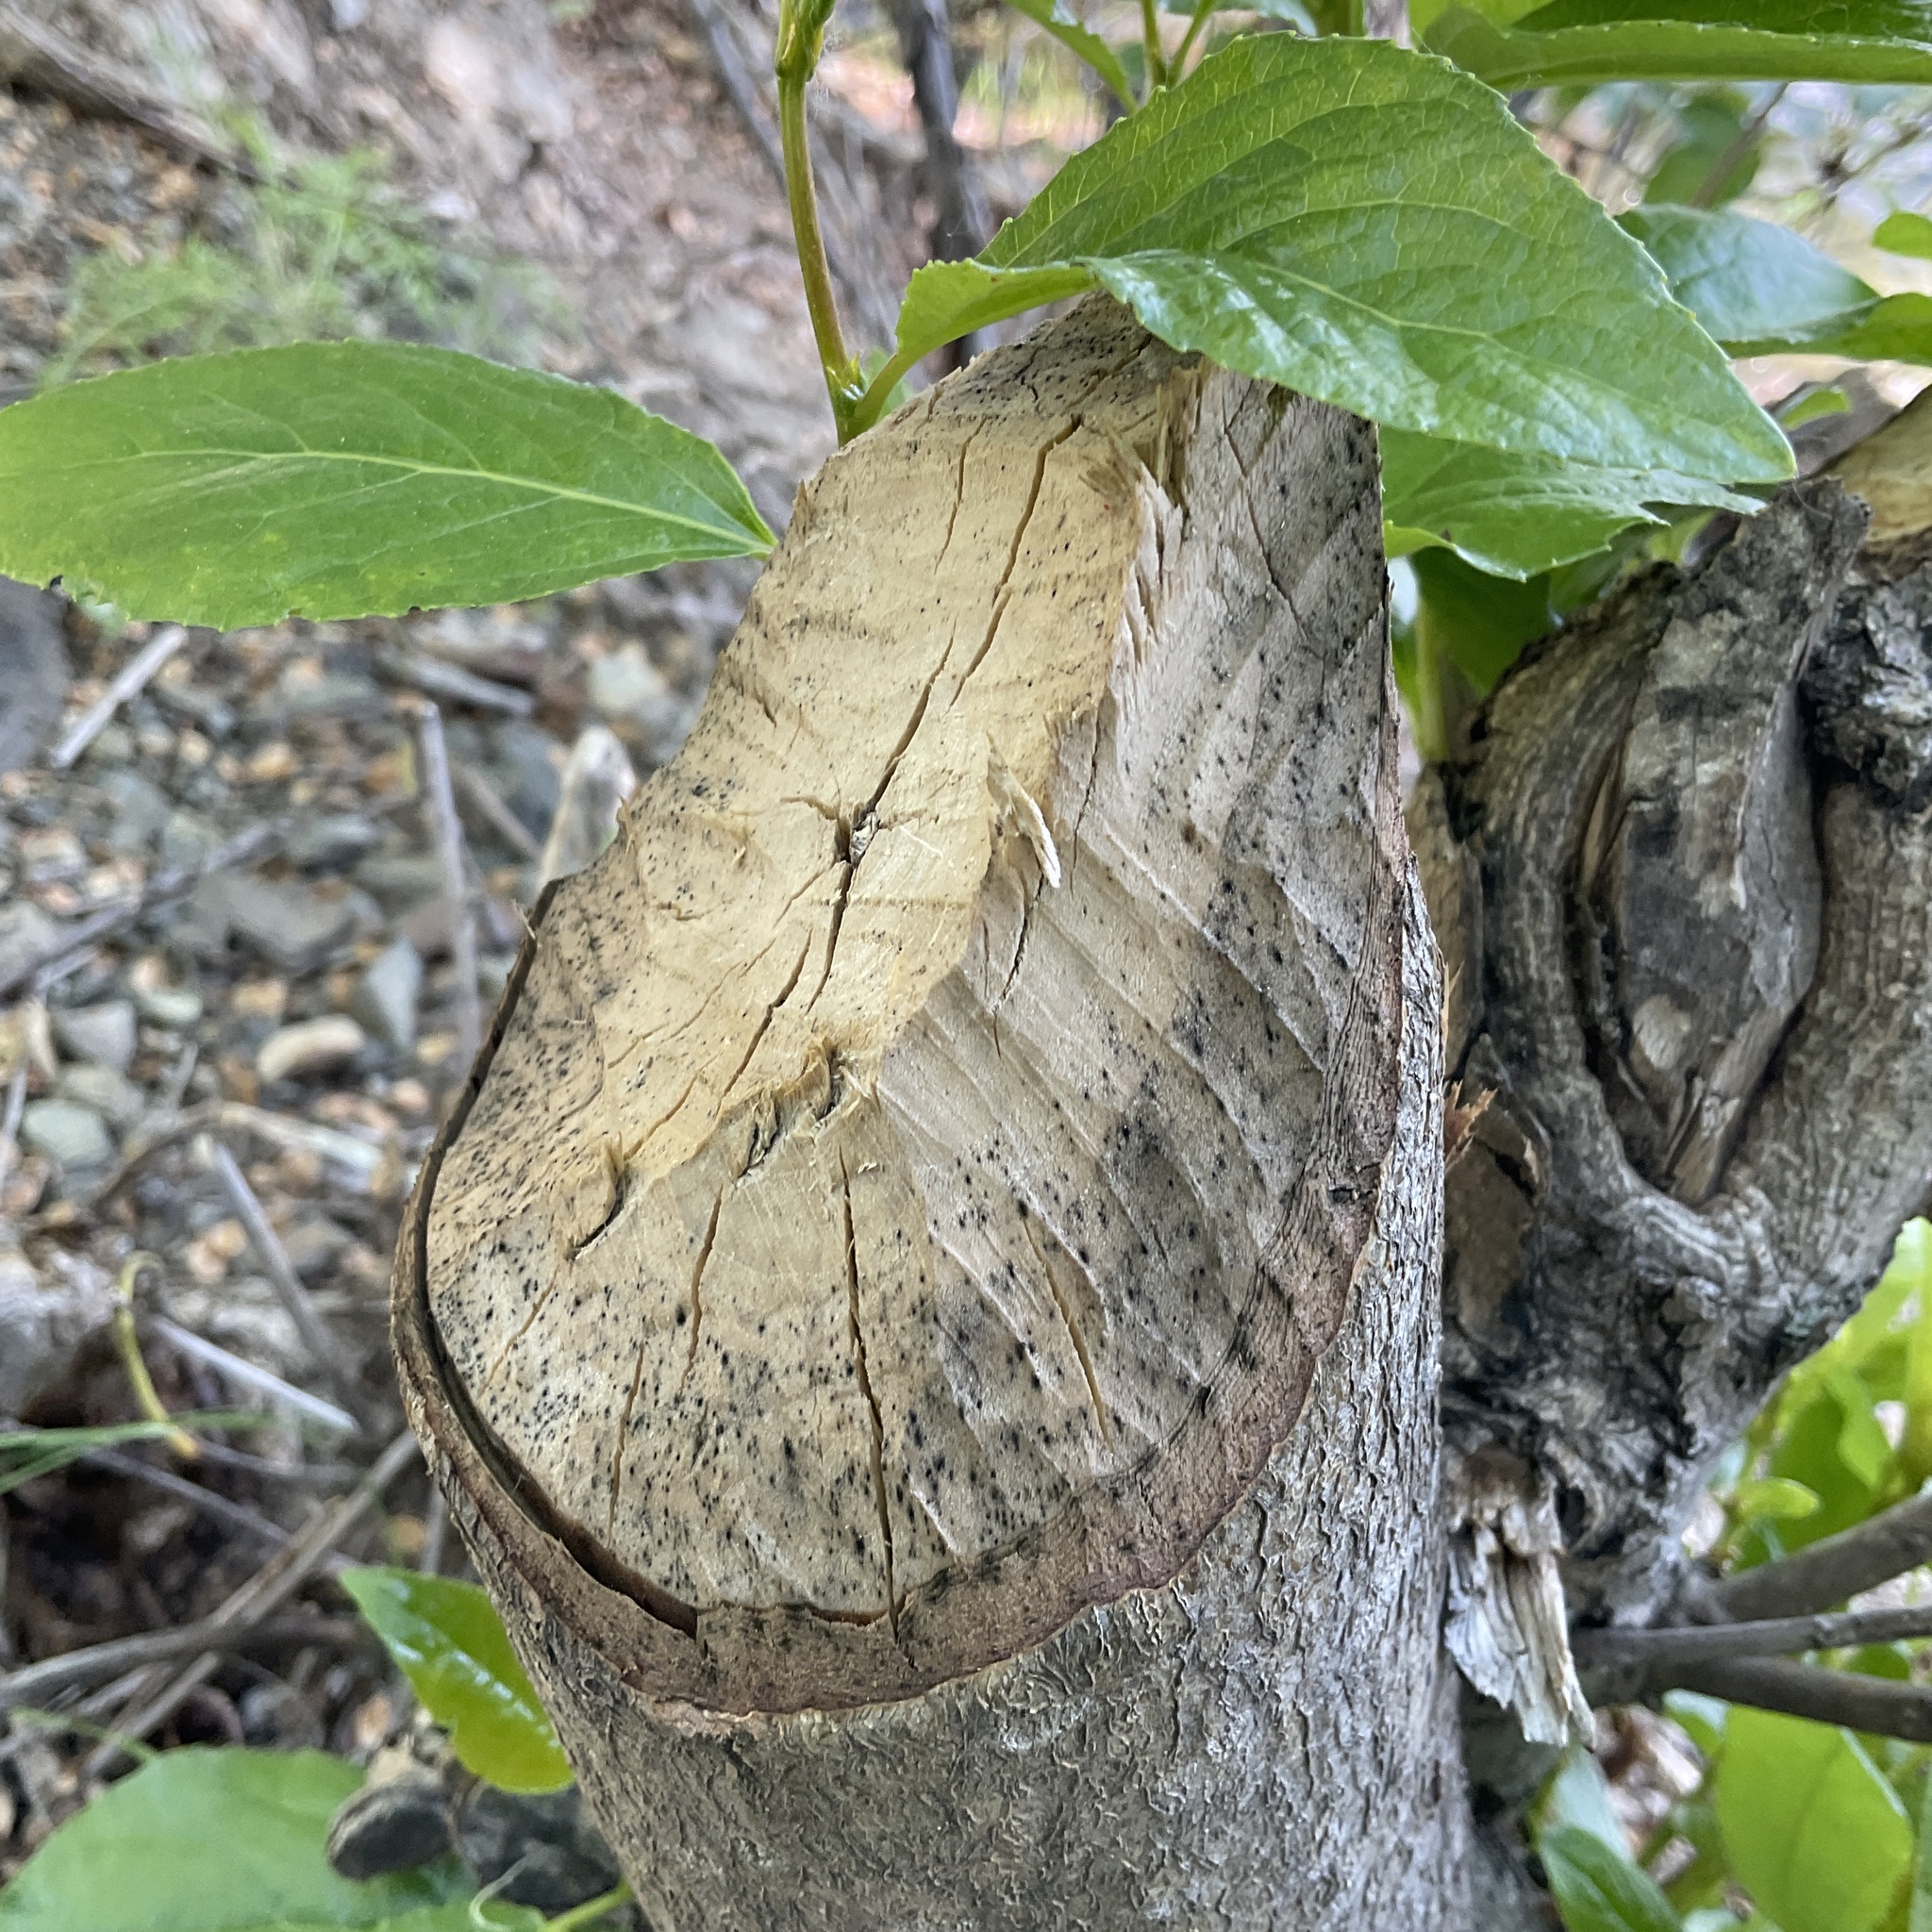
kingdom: Animalia
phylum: Chordata
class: Mammalia
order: Rodentia
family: Castoridae
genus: Castor
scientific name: Castor canadensis
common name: American beaver
